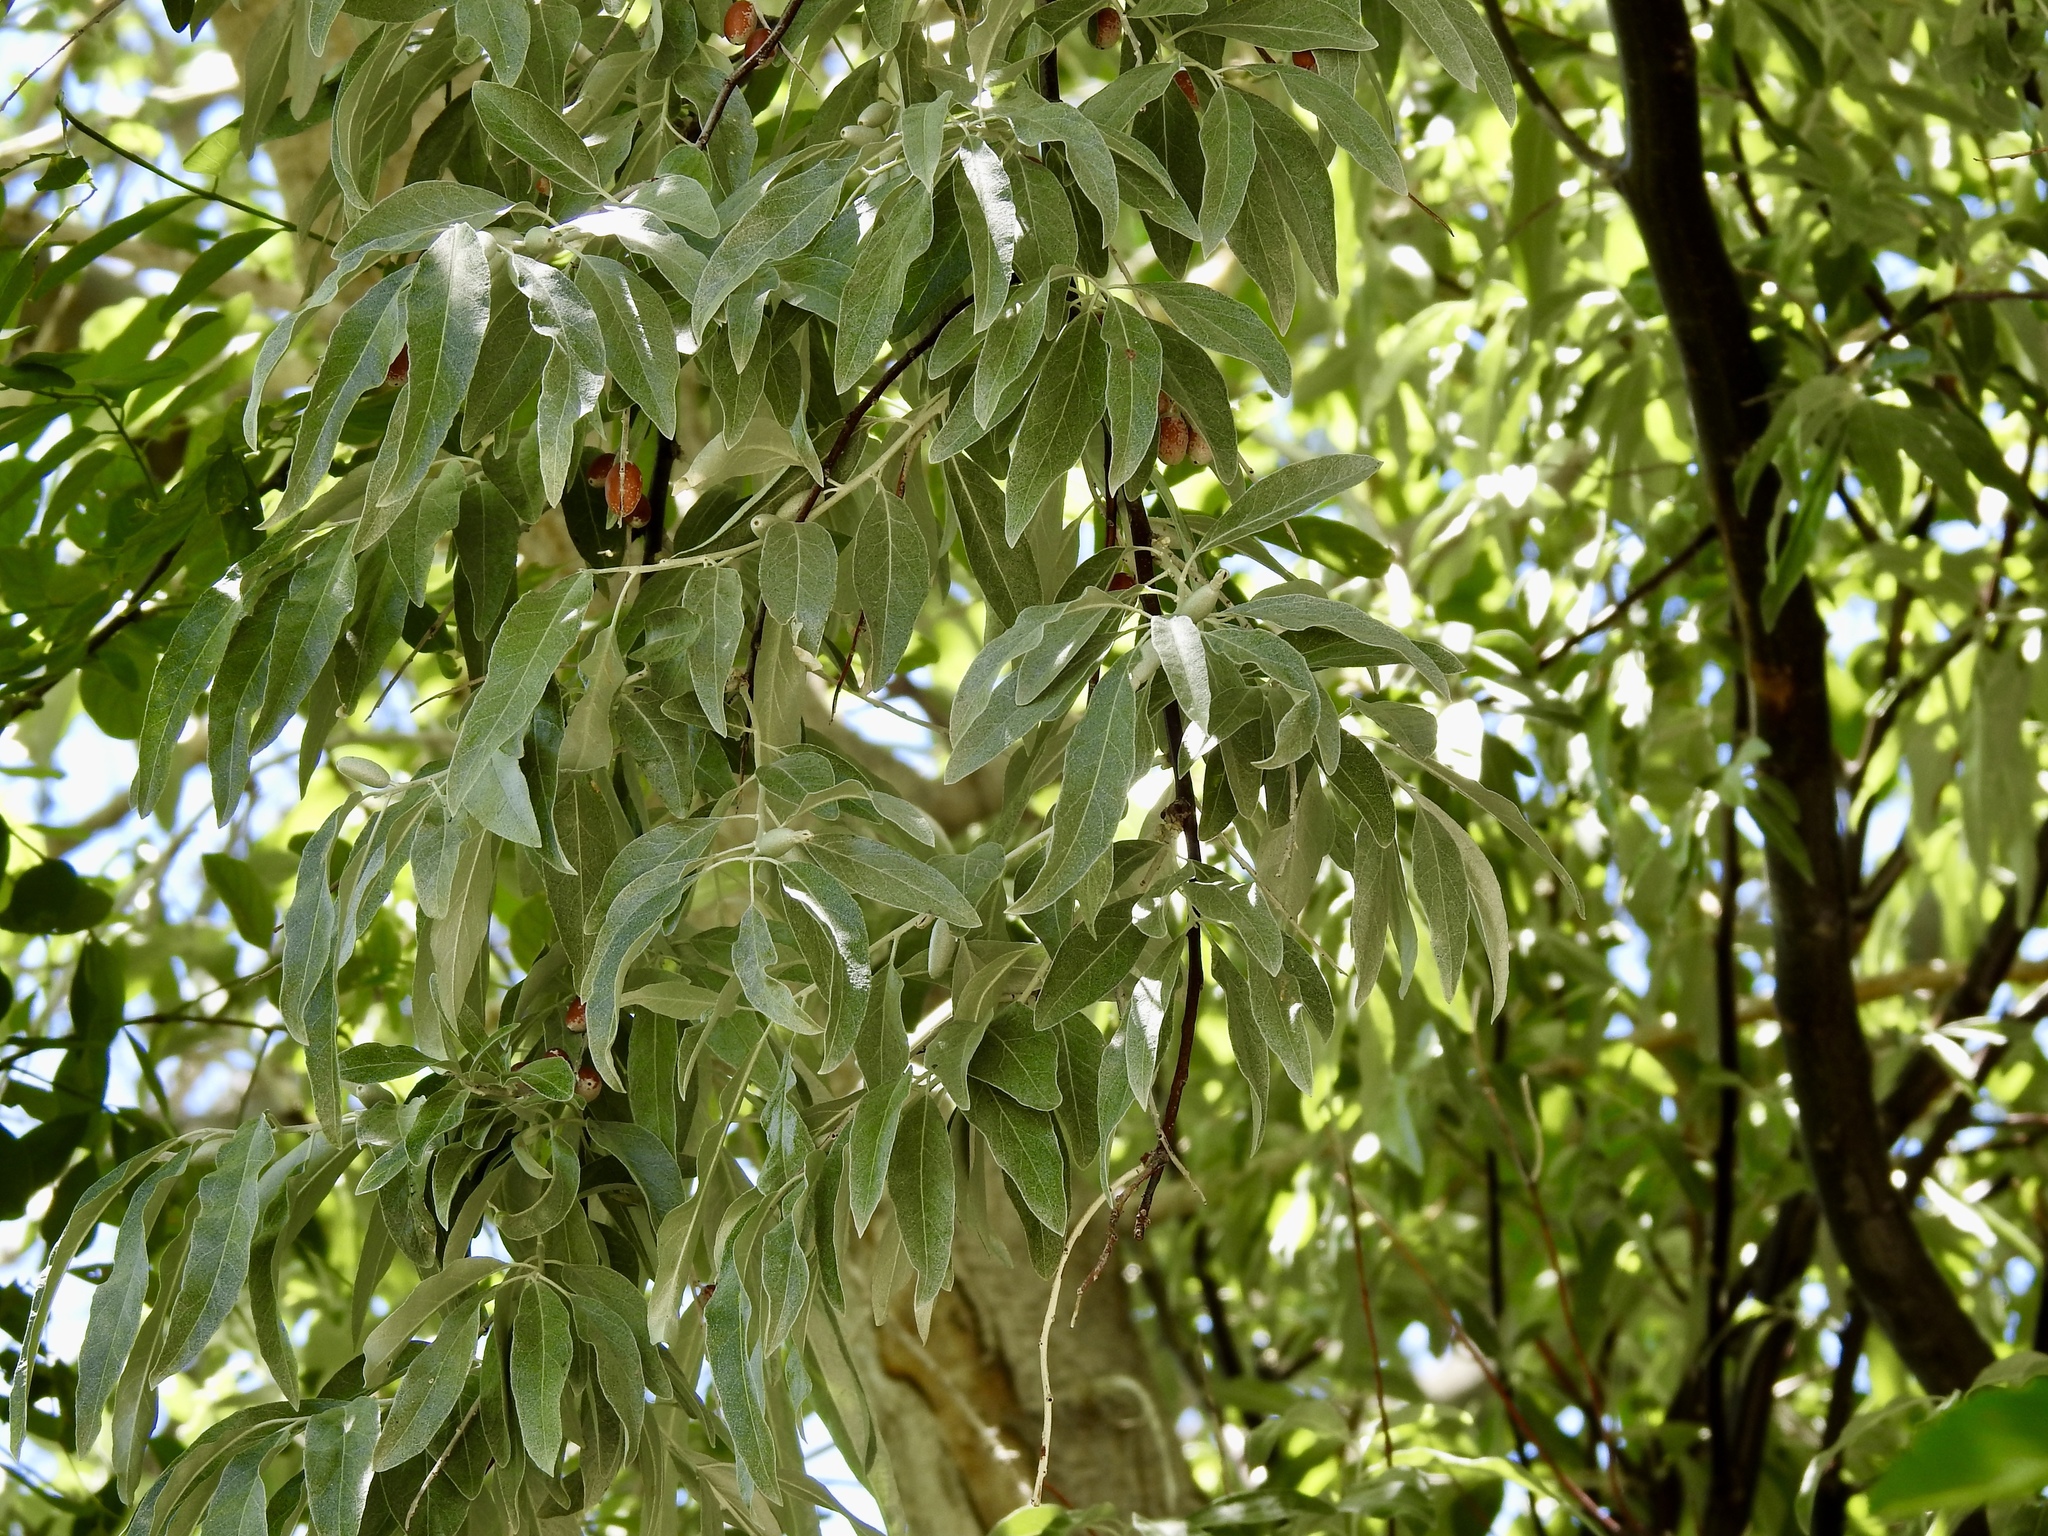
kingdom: Plantae
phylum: Tracheophyta
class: Magnoliopsida
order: Rosales
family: Elaeagnaceae
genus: Elaeagnus
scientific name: Elaeagnus angustifolia
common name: Russian olive
